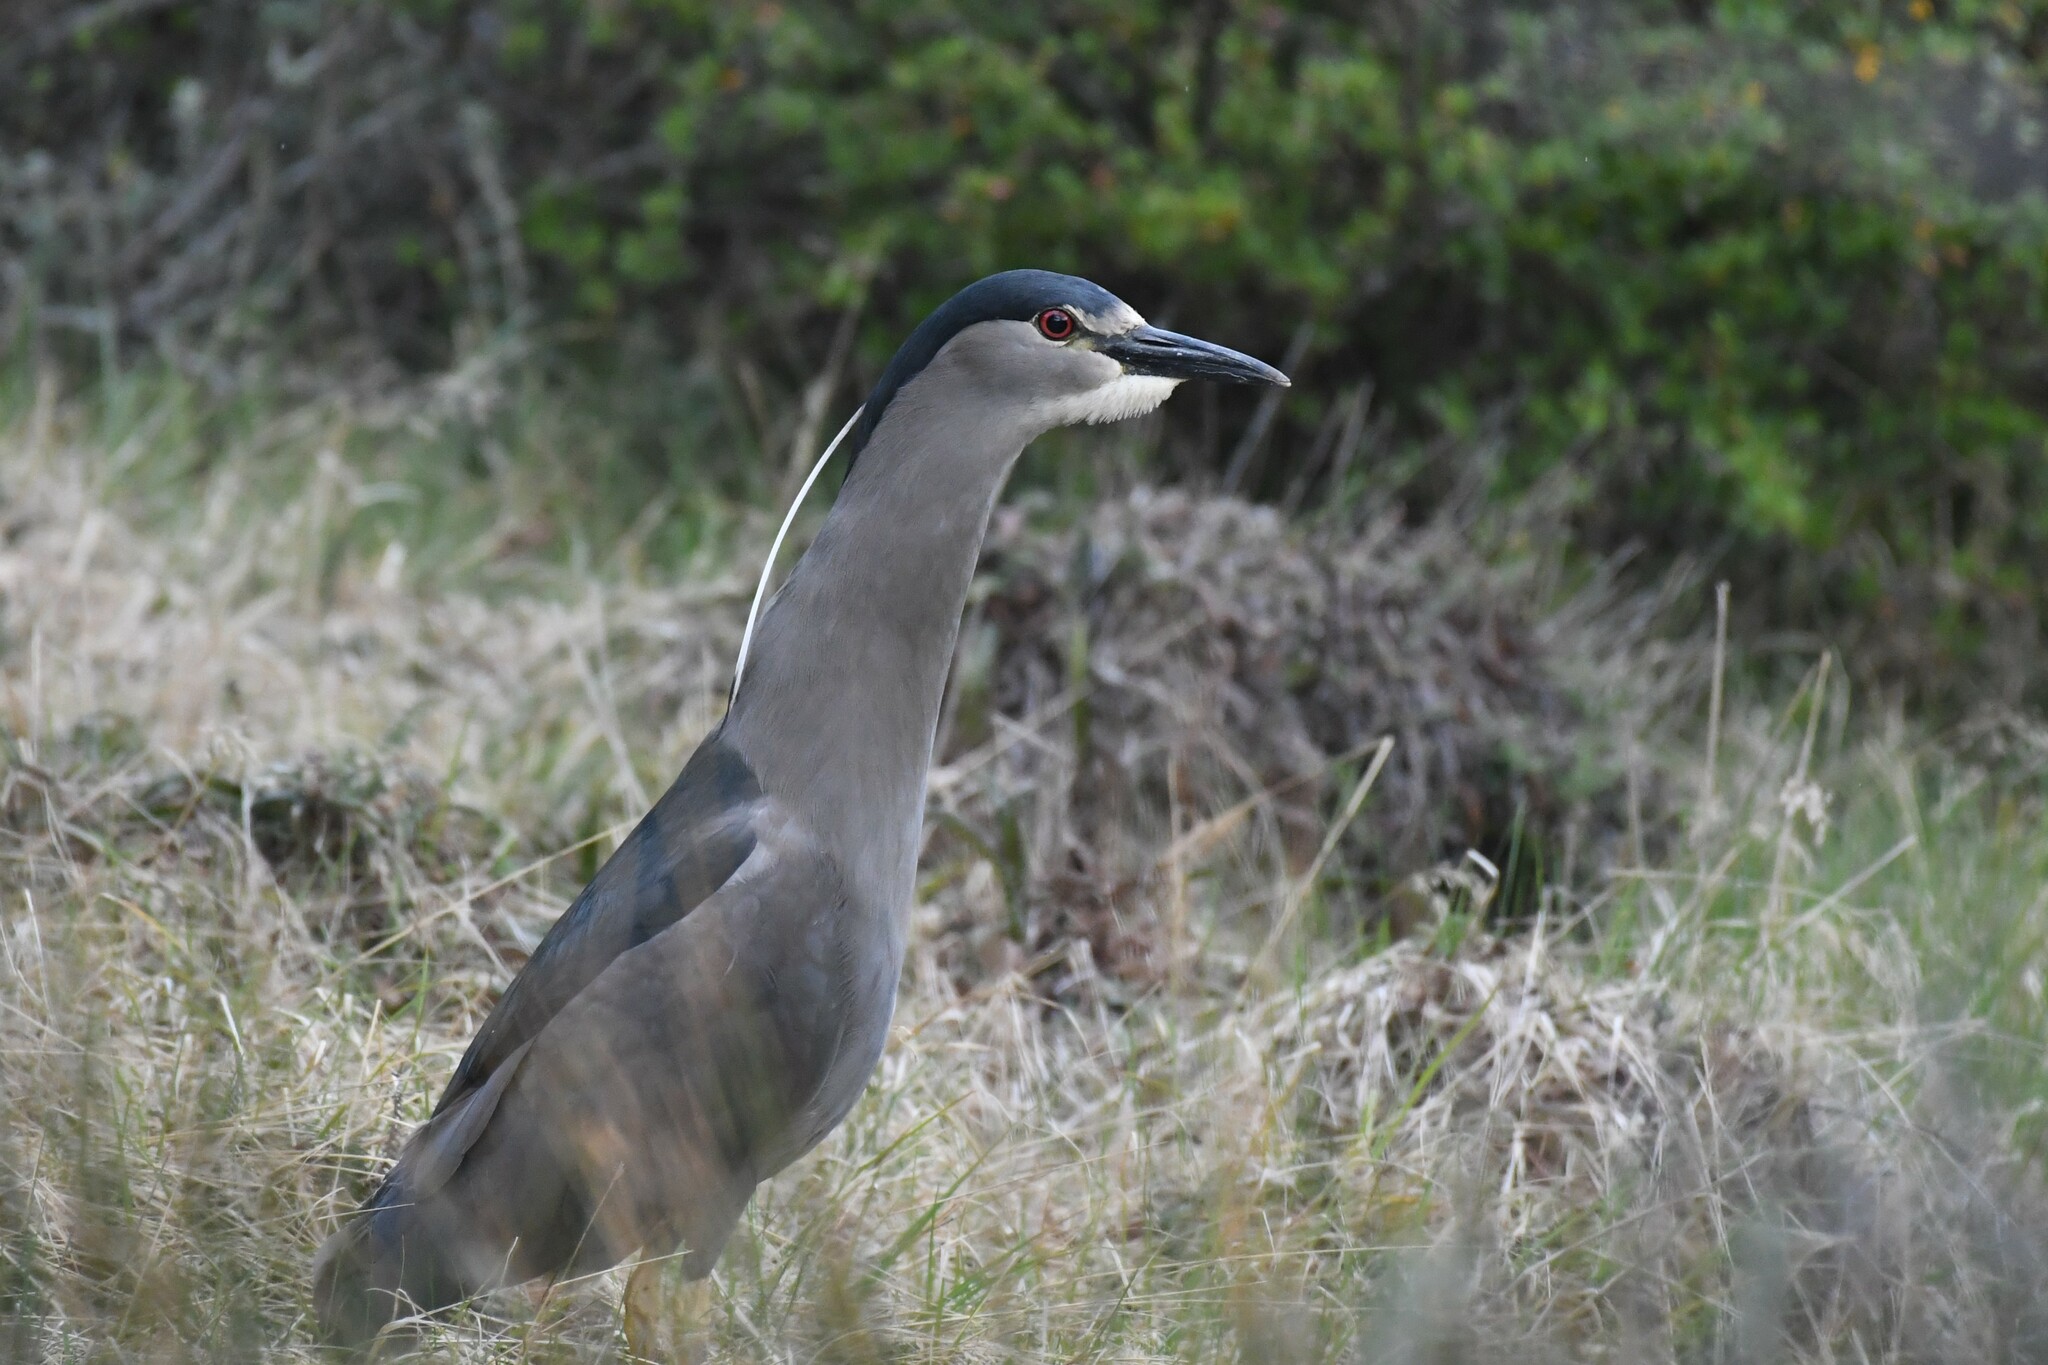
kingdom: Animalia
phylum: Chordata
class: Aves
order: Pelecaniformes
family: Ardeidae
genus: Nycticorax
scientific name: Nycticorax nycticorax
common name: Black-crowned night heron
